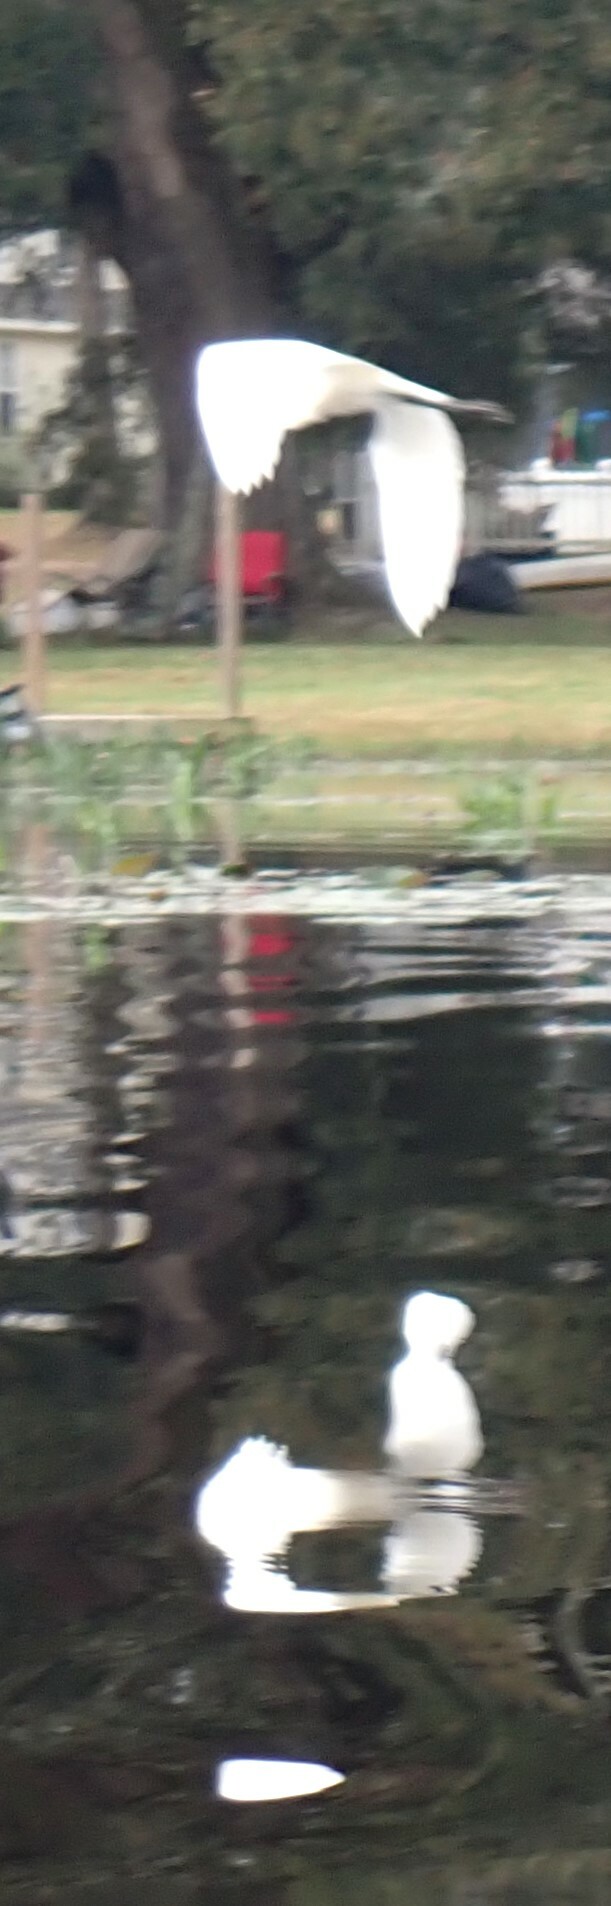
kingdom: Animalia
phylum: Chordata
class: Aves
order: Pelecaniformes
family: Ardeidae
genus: Ardea
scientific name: Ardea alba
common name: Great egret
